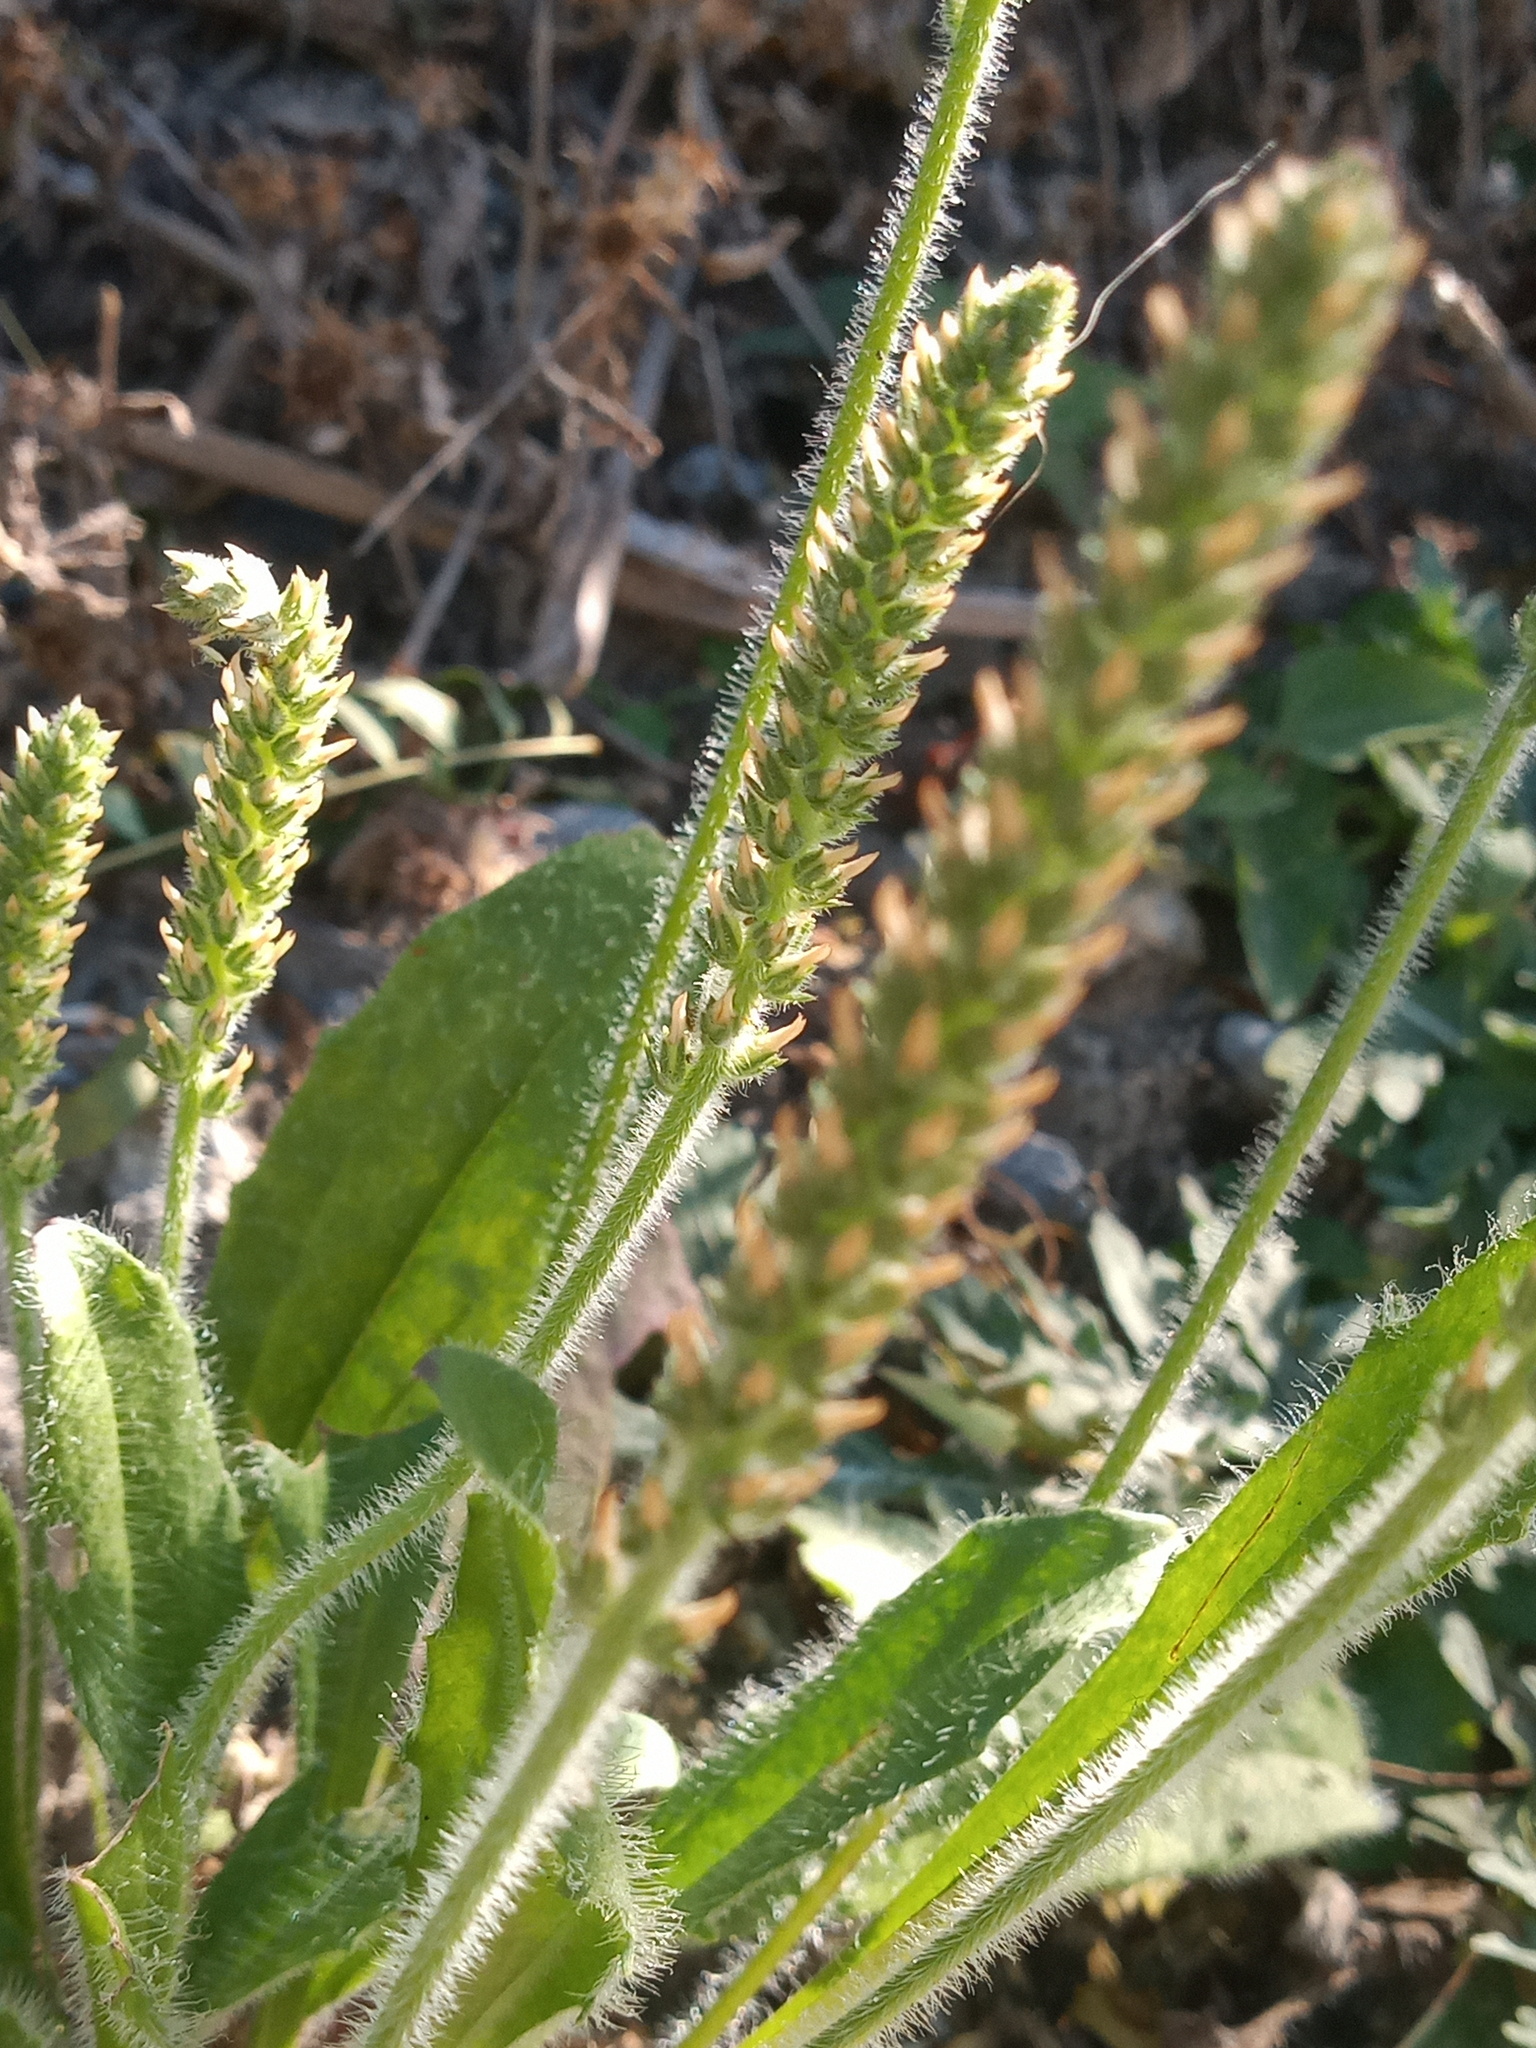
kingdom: Plantae
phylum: Tracheophyta
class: Magnoliopsida
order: Lamiales
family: Plantaginaceae
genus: Plantago
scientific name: Plantago virginica
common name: Hoary plantain
